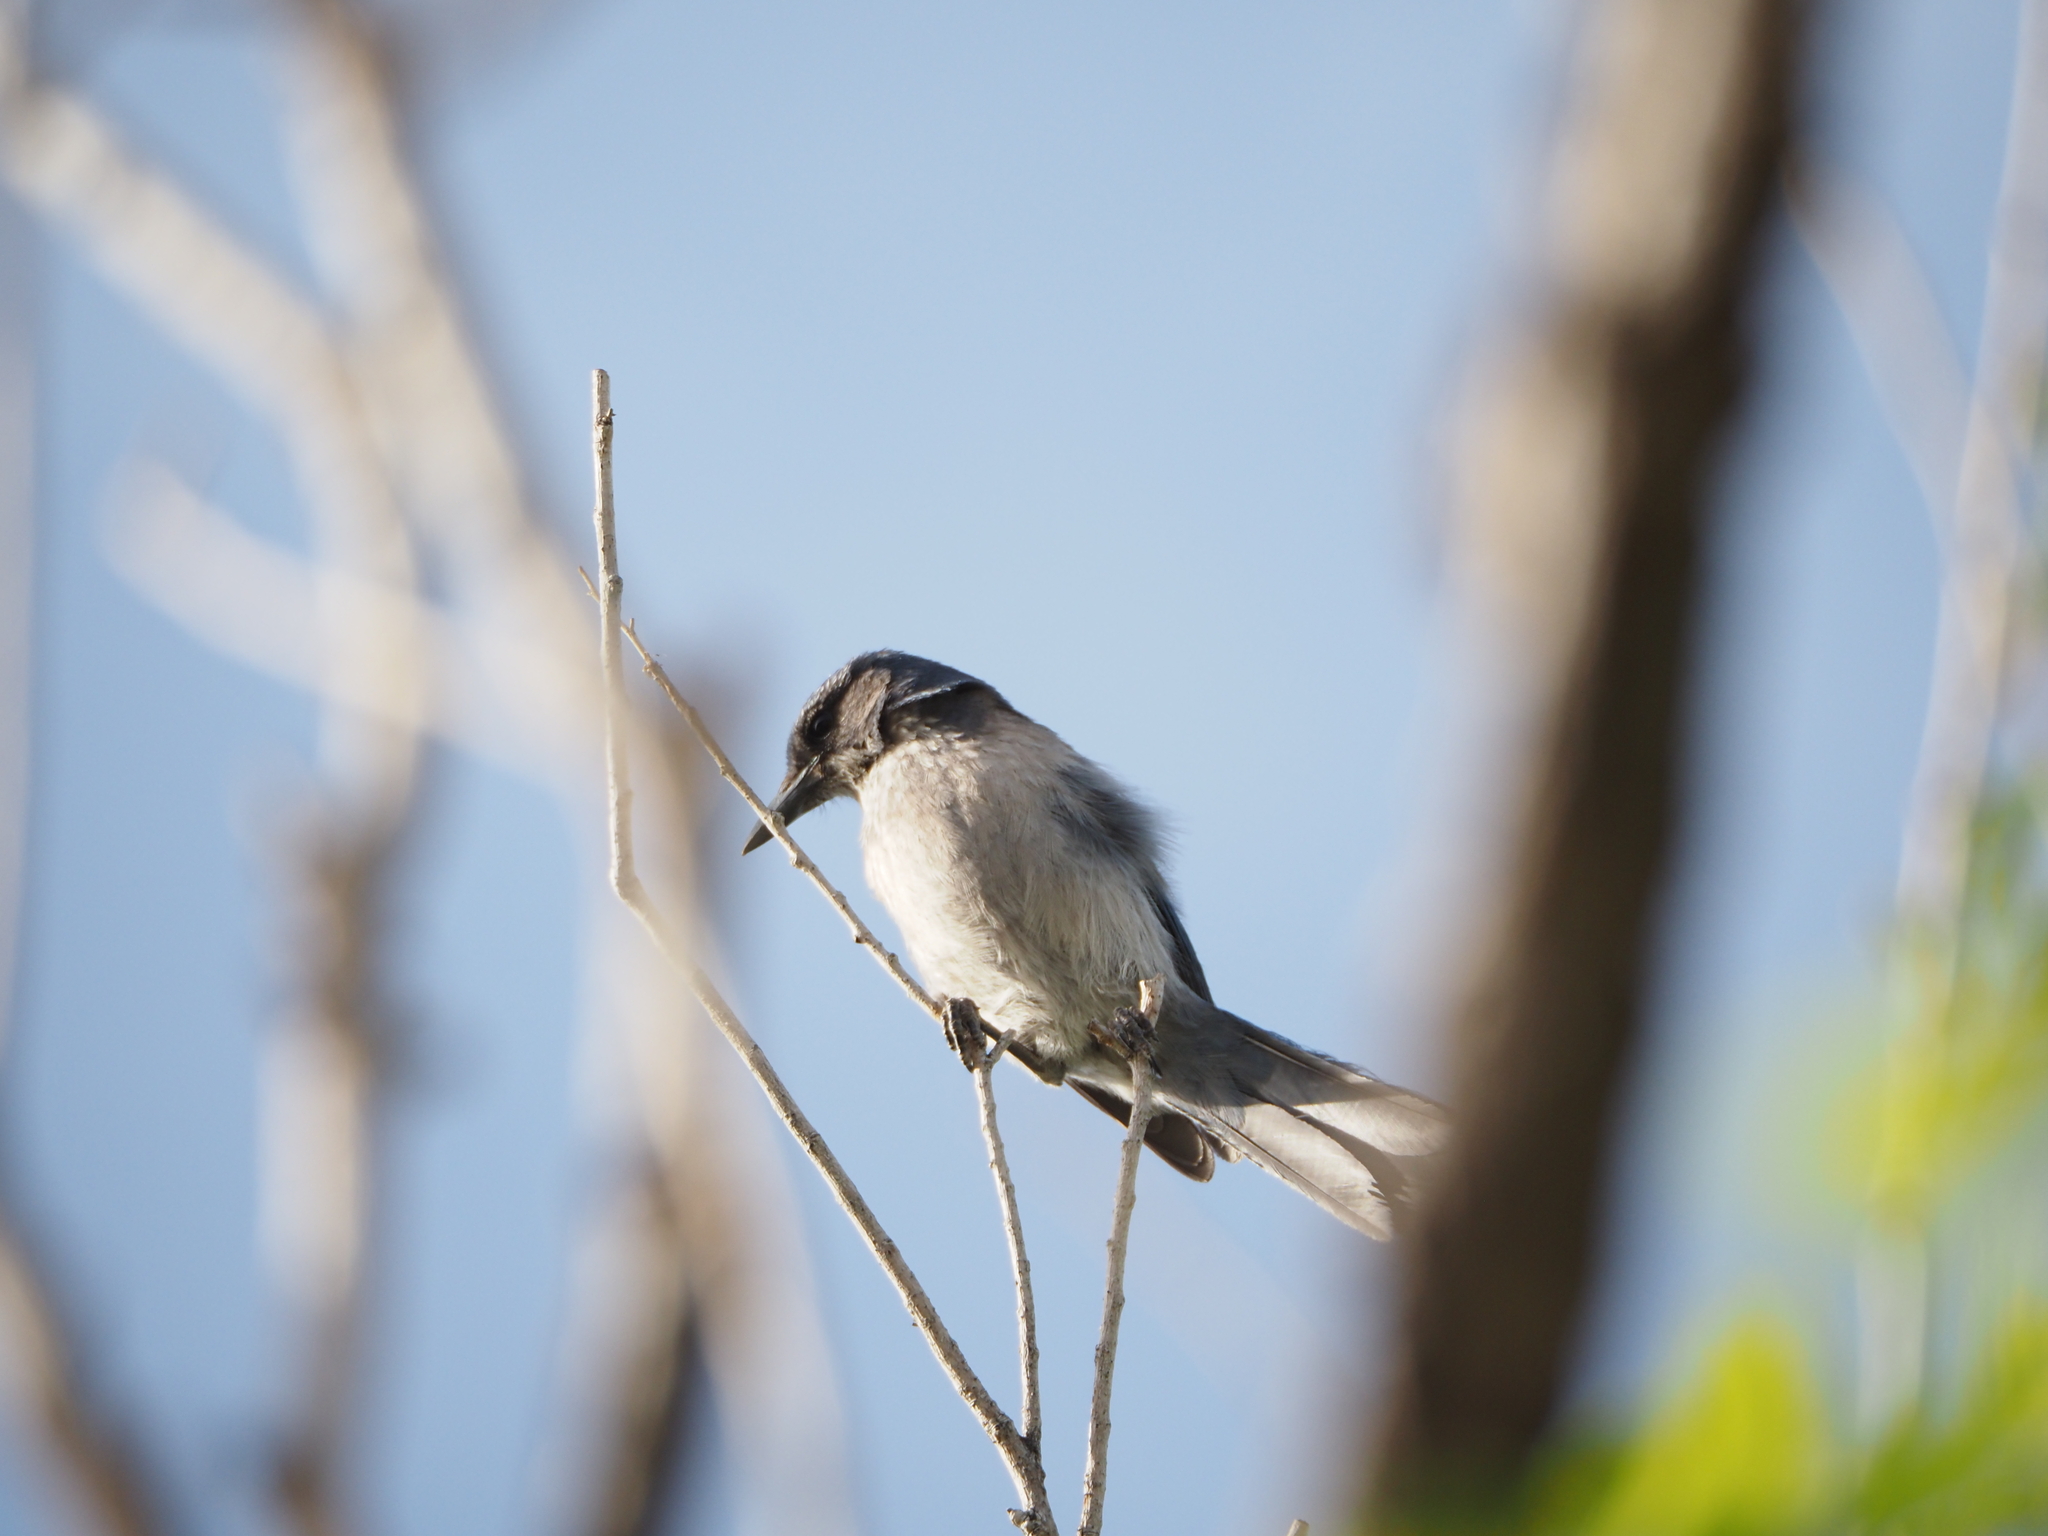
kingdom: Animalia
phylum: Chordata
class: Aves
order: Passeriformes
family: Corvidae
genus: Aphelocoma
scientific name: Aphelocoma woodhouseii
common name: Woodhouse's scrub-jay
